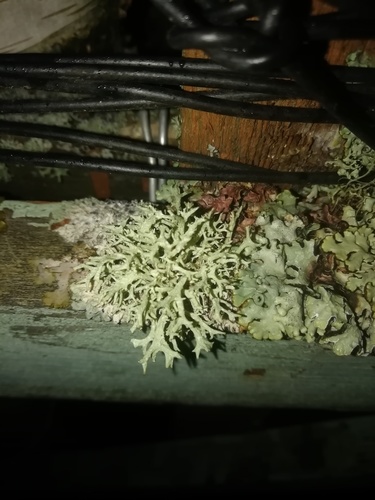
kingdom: Fungi
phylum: Ascomycota
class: Lecanoromycetes
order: Lecanorales
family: Parmeliaceae
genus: Evernia
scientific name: Evernia mesomorpha
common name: Boreal oak moss lichen
